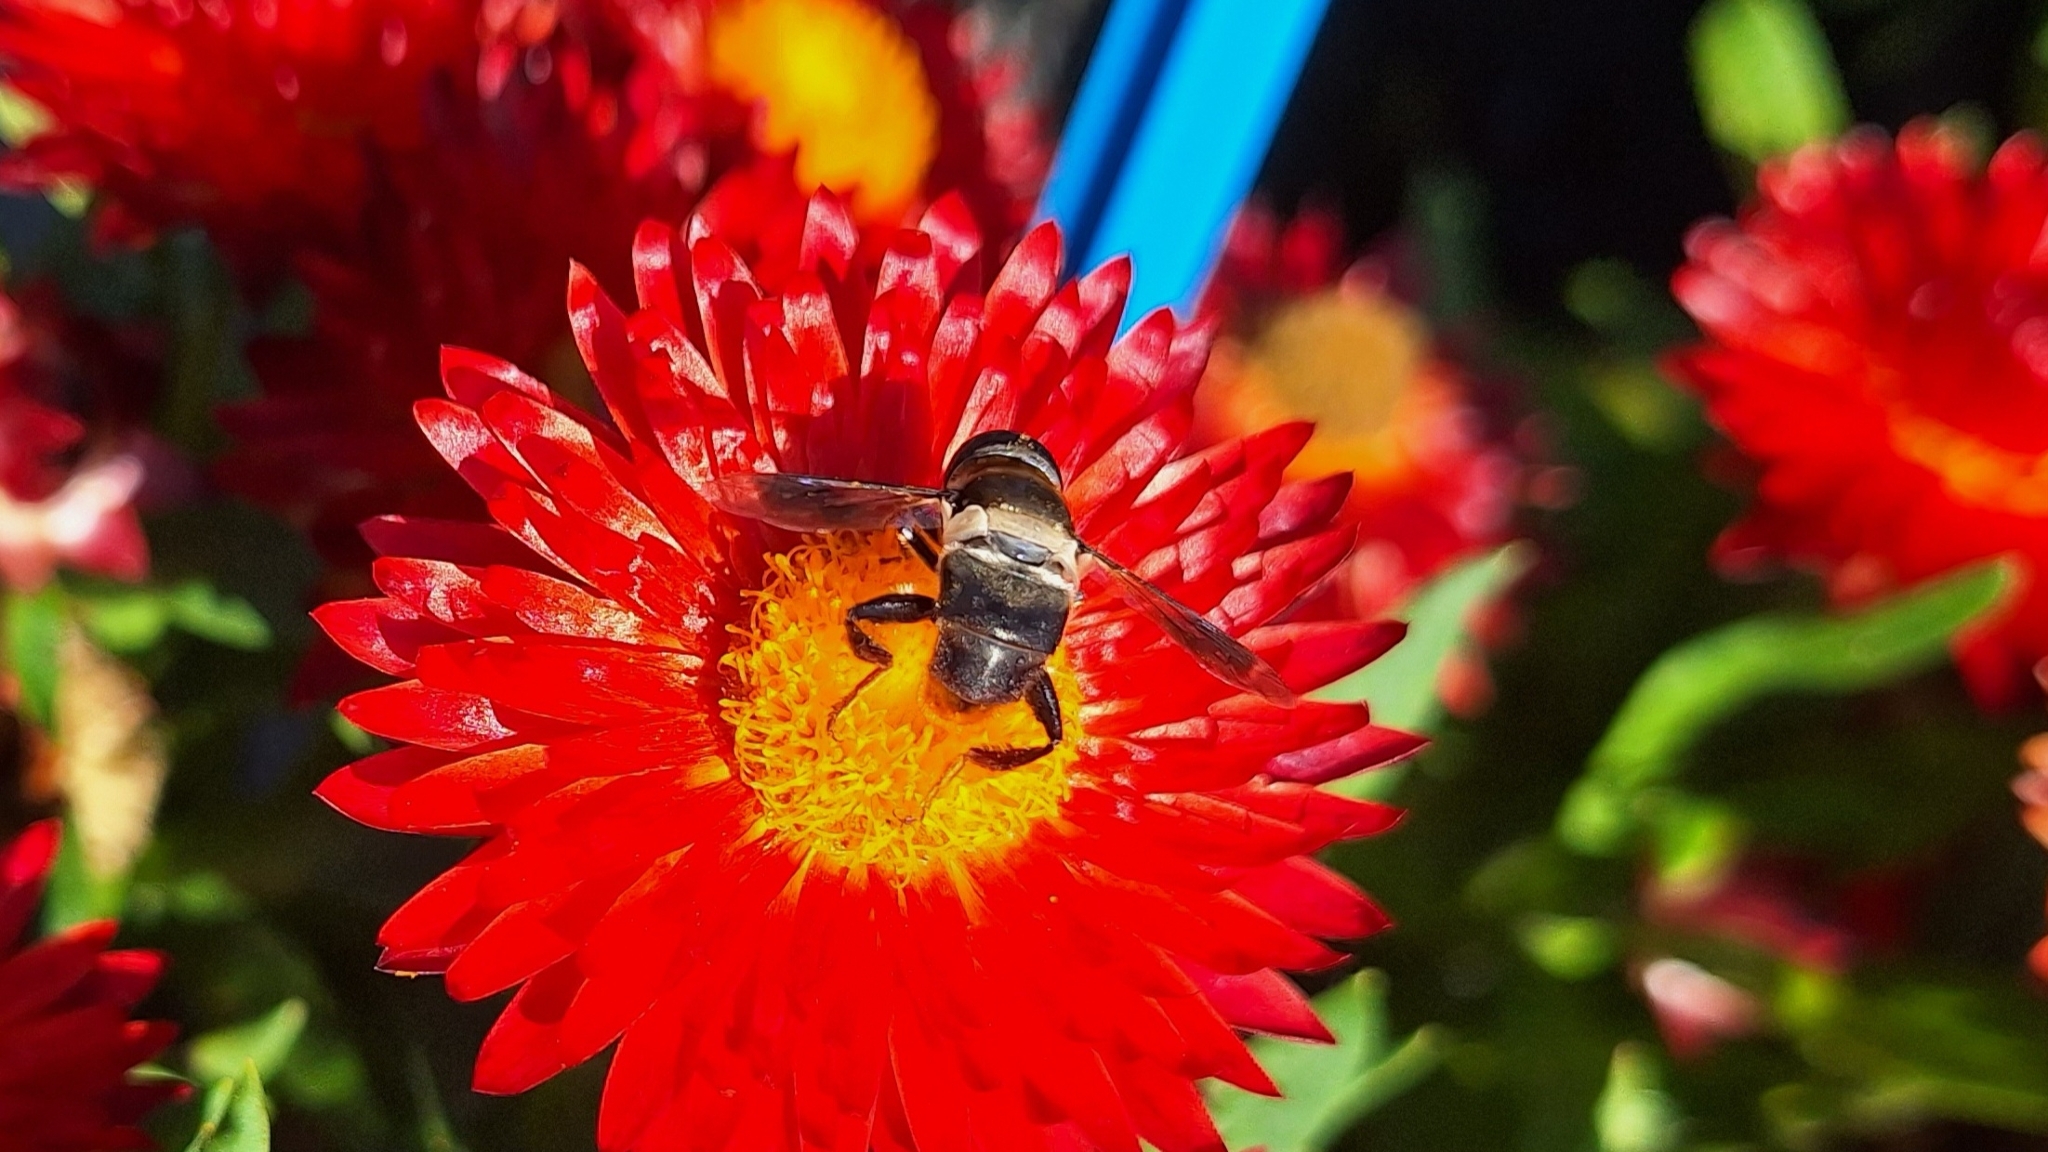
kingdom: Animalia
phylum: Arthropoda
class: Insecta
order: Diptera
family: Syrphidae
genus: Senaspis
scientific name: Senaspis haemorrhoa
